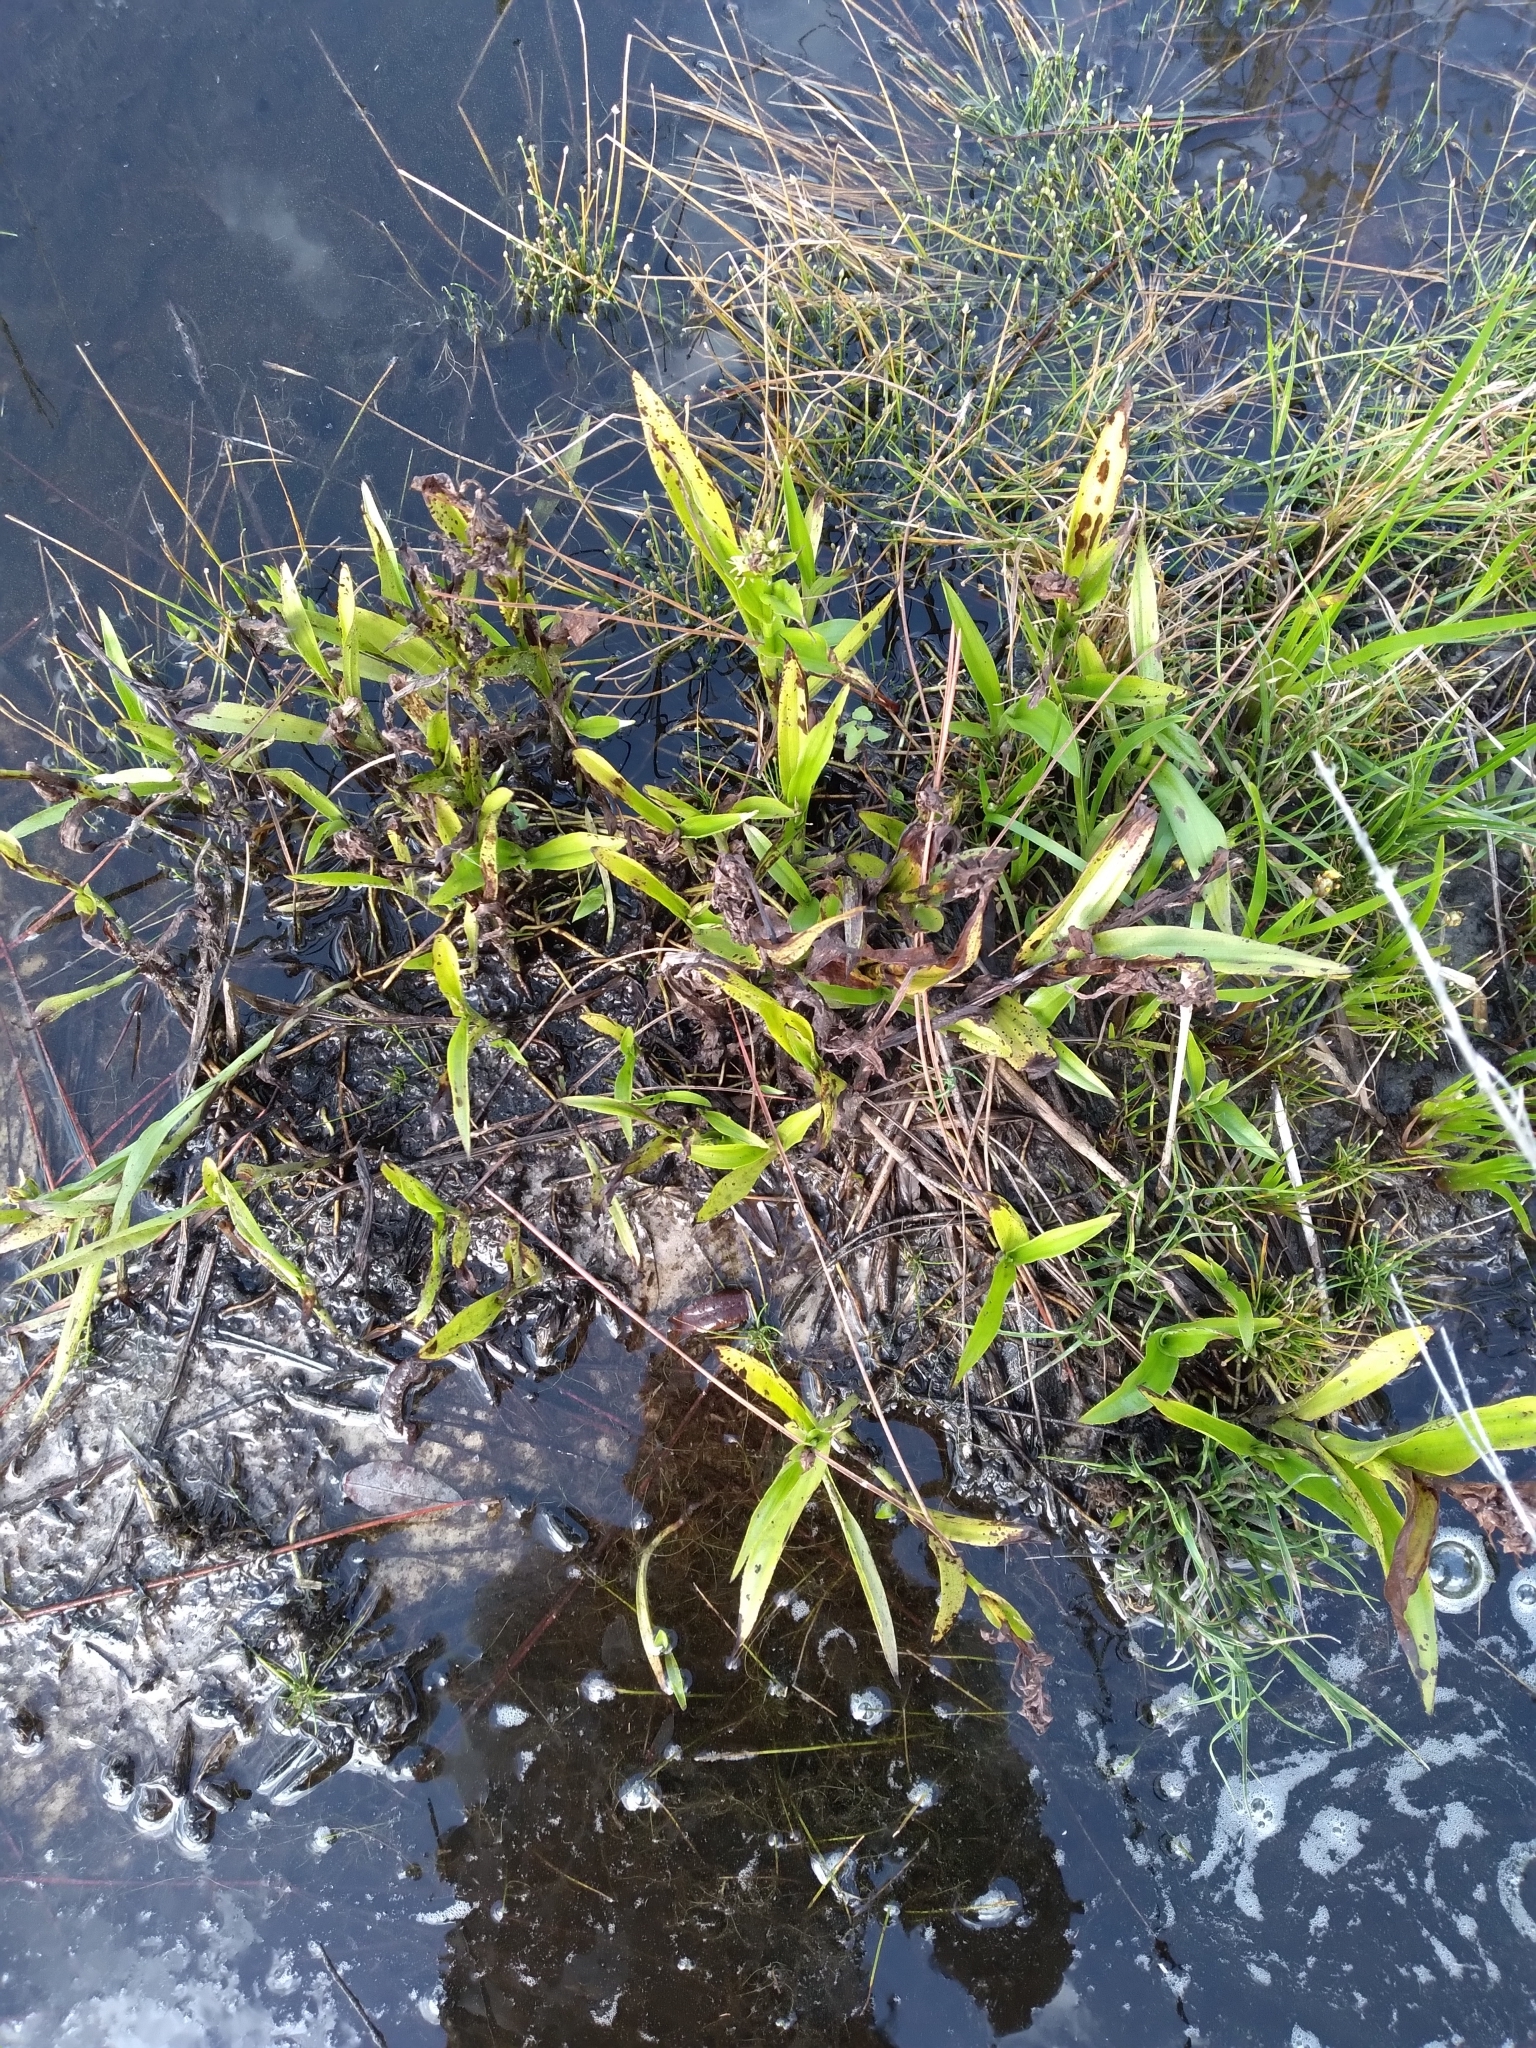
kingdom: Plantae
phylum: Tracheophyta
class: Liliopsida
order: Asparagales
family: Orchidaceae
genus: Habenaria
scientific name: Habenaria repens
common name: Water orchid
